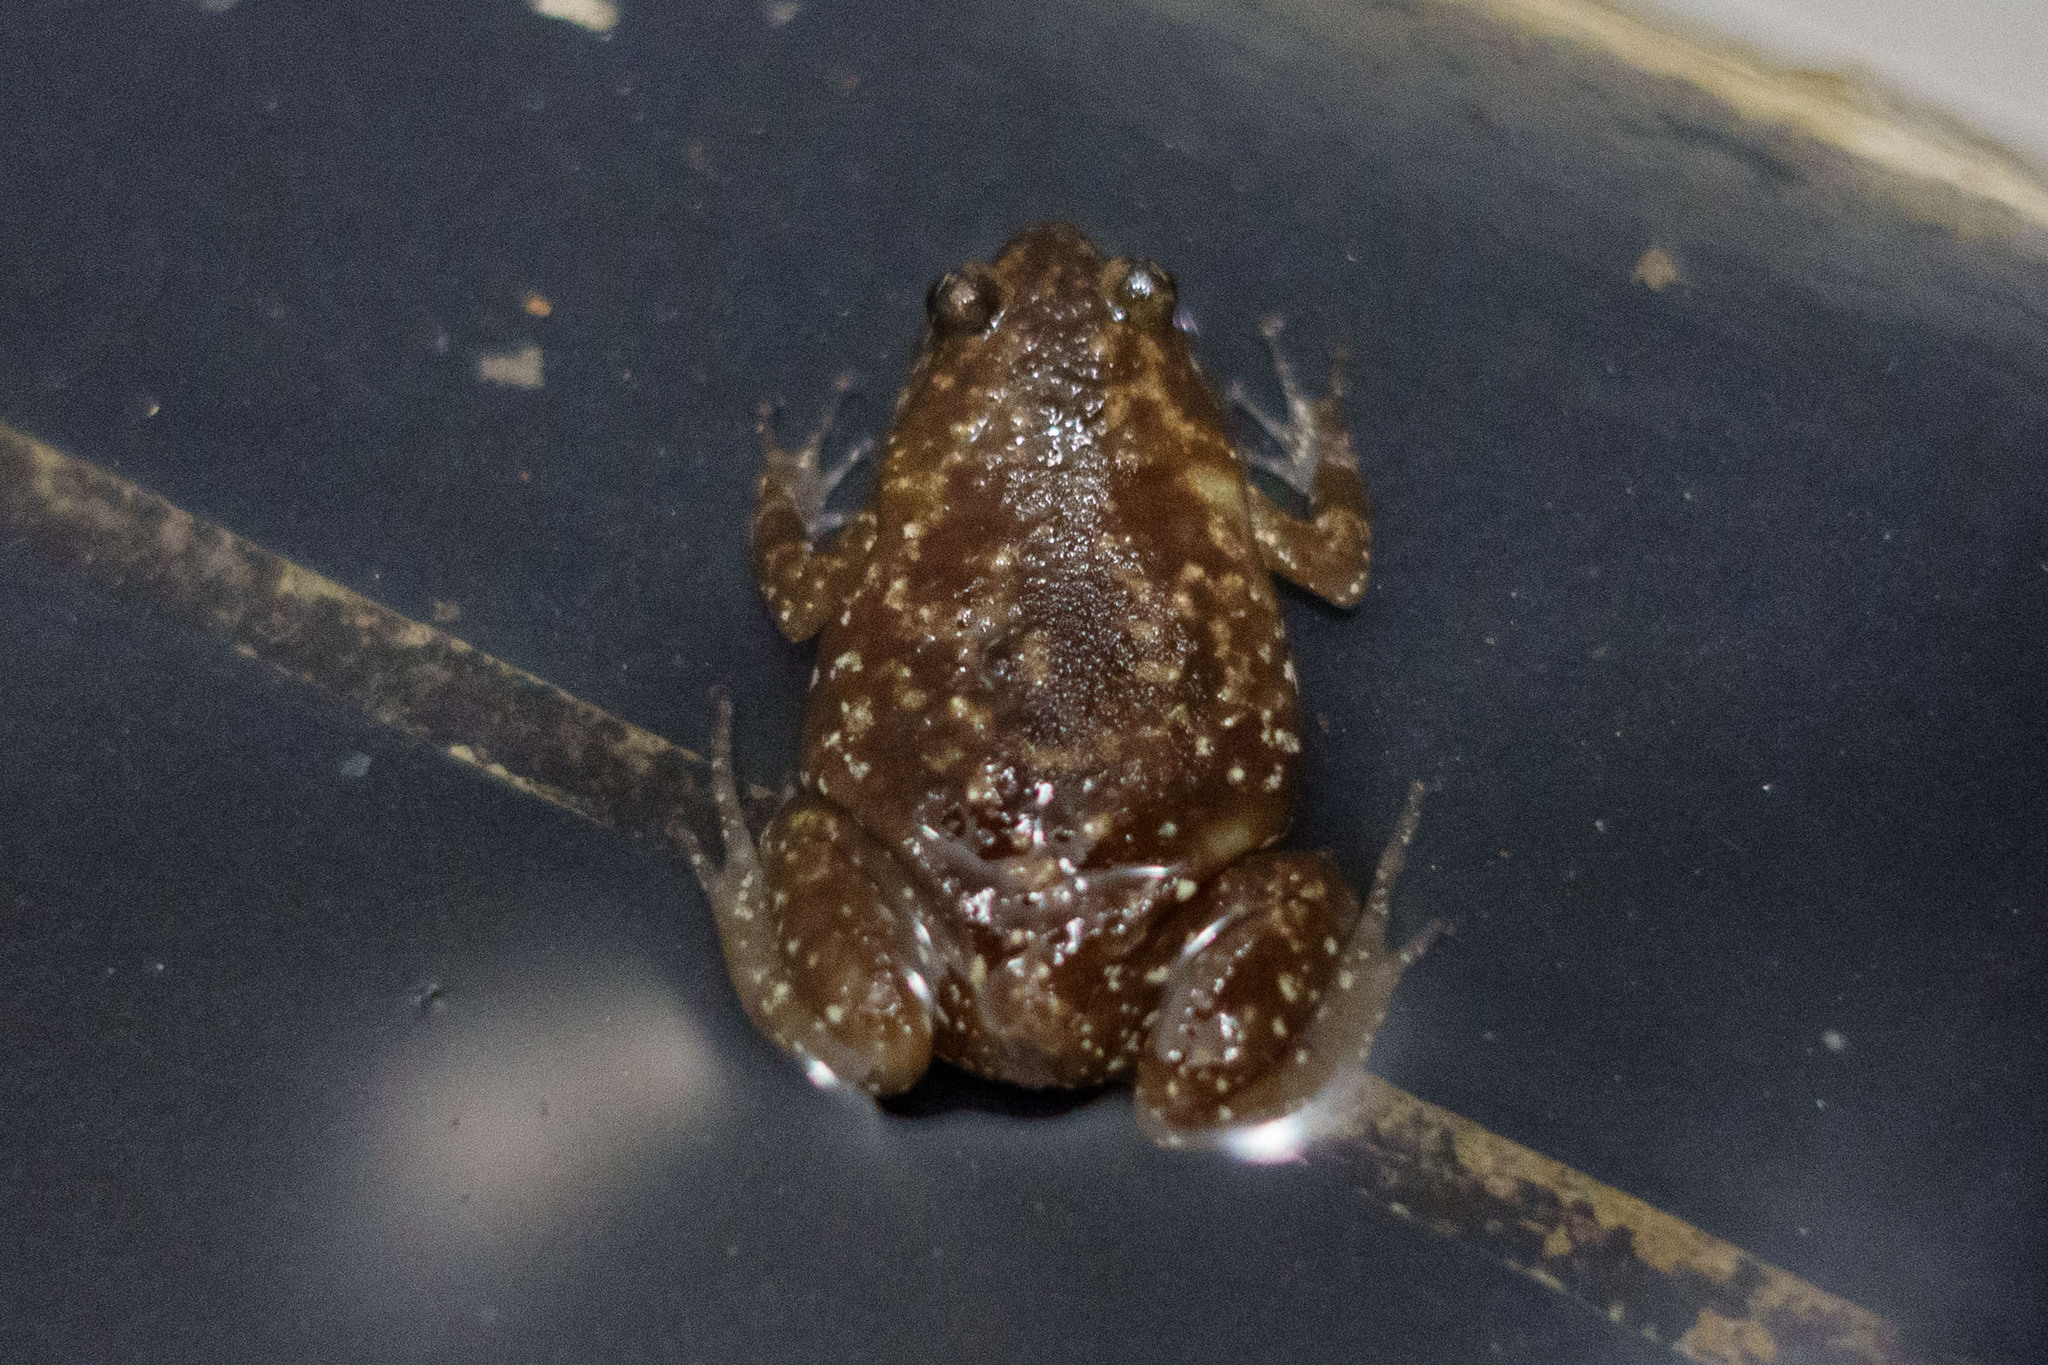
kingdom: Animalia
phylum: Chordata
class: Amphibia
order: Anura
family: Microhylidae
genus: Uperodon
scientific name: Uperodon rohani
